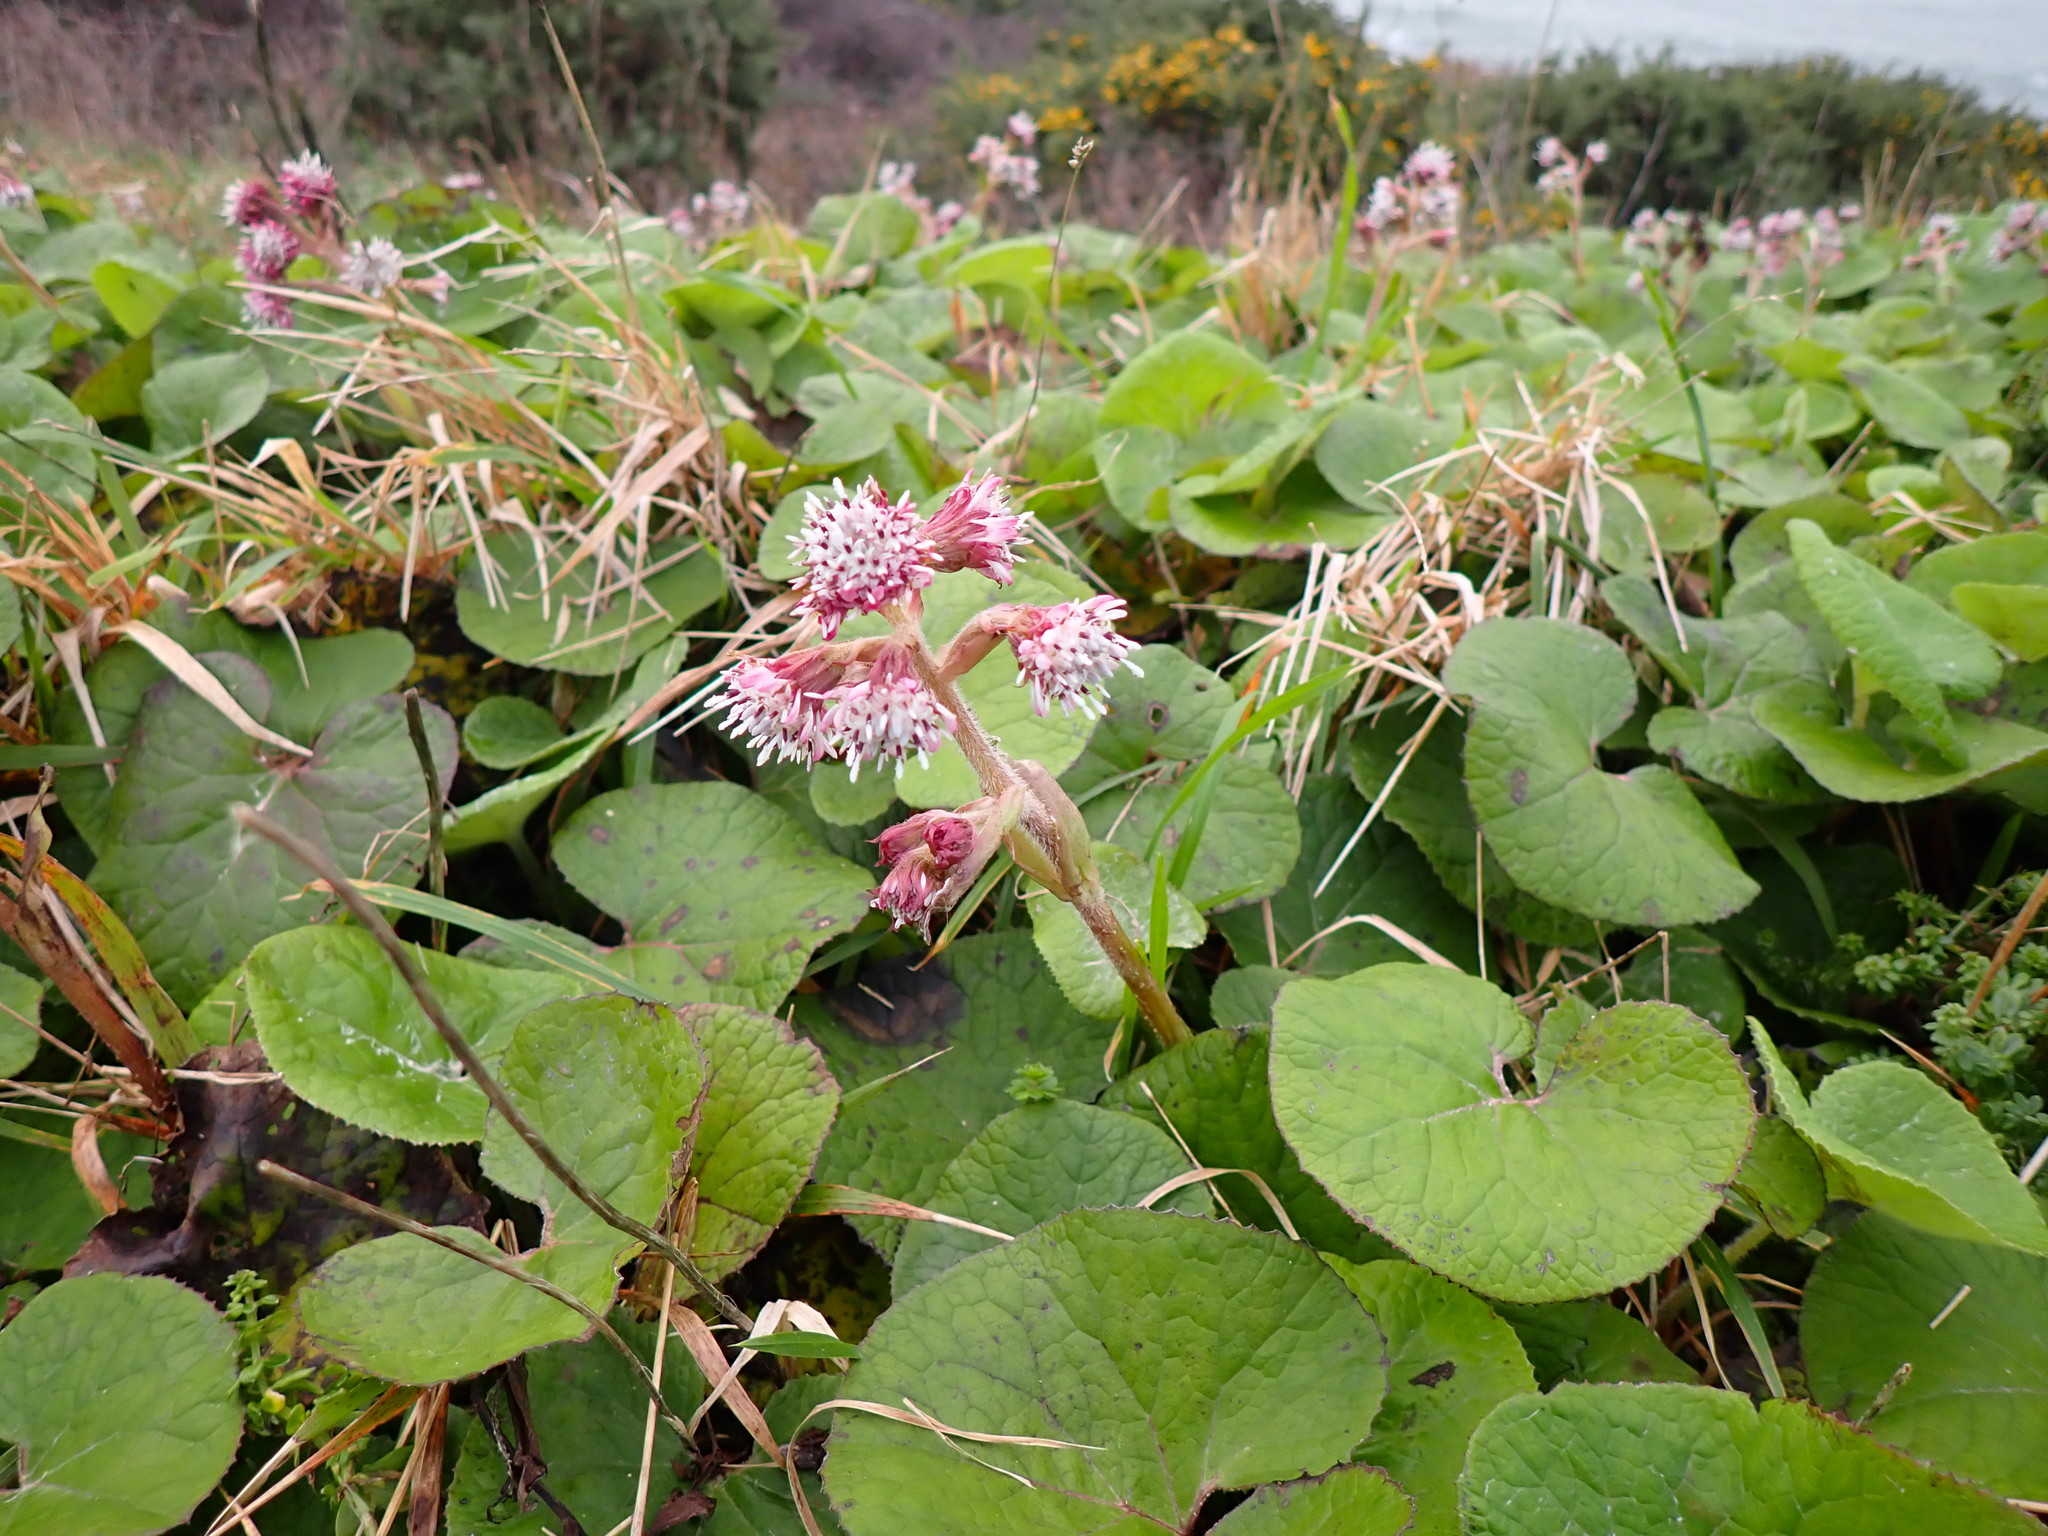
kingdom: Plantae
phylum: Tracheophyta
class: Magnoliopsida
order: Asterales
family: Asteraceae
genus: Petasites
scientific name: Petasites pyrenaicus
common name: Winter heliotrope
